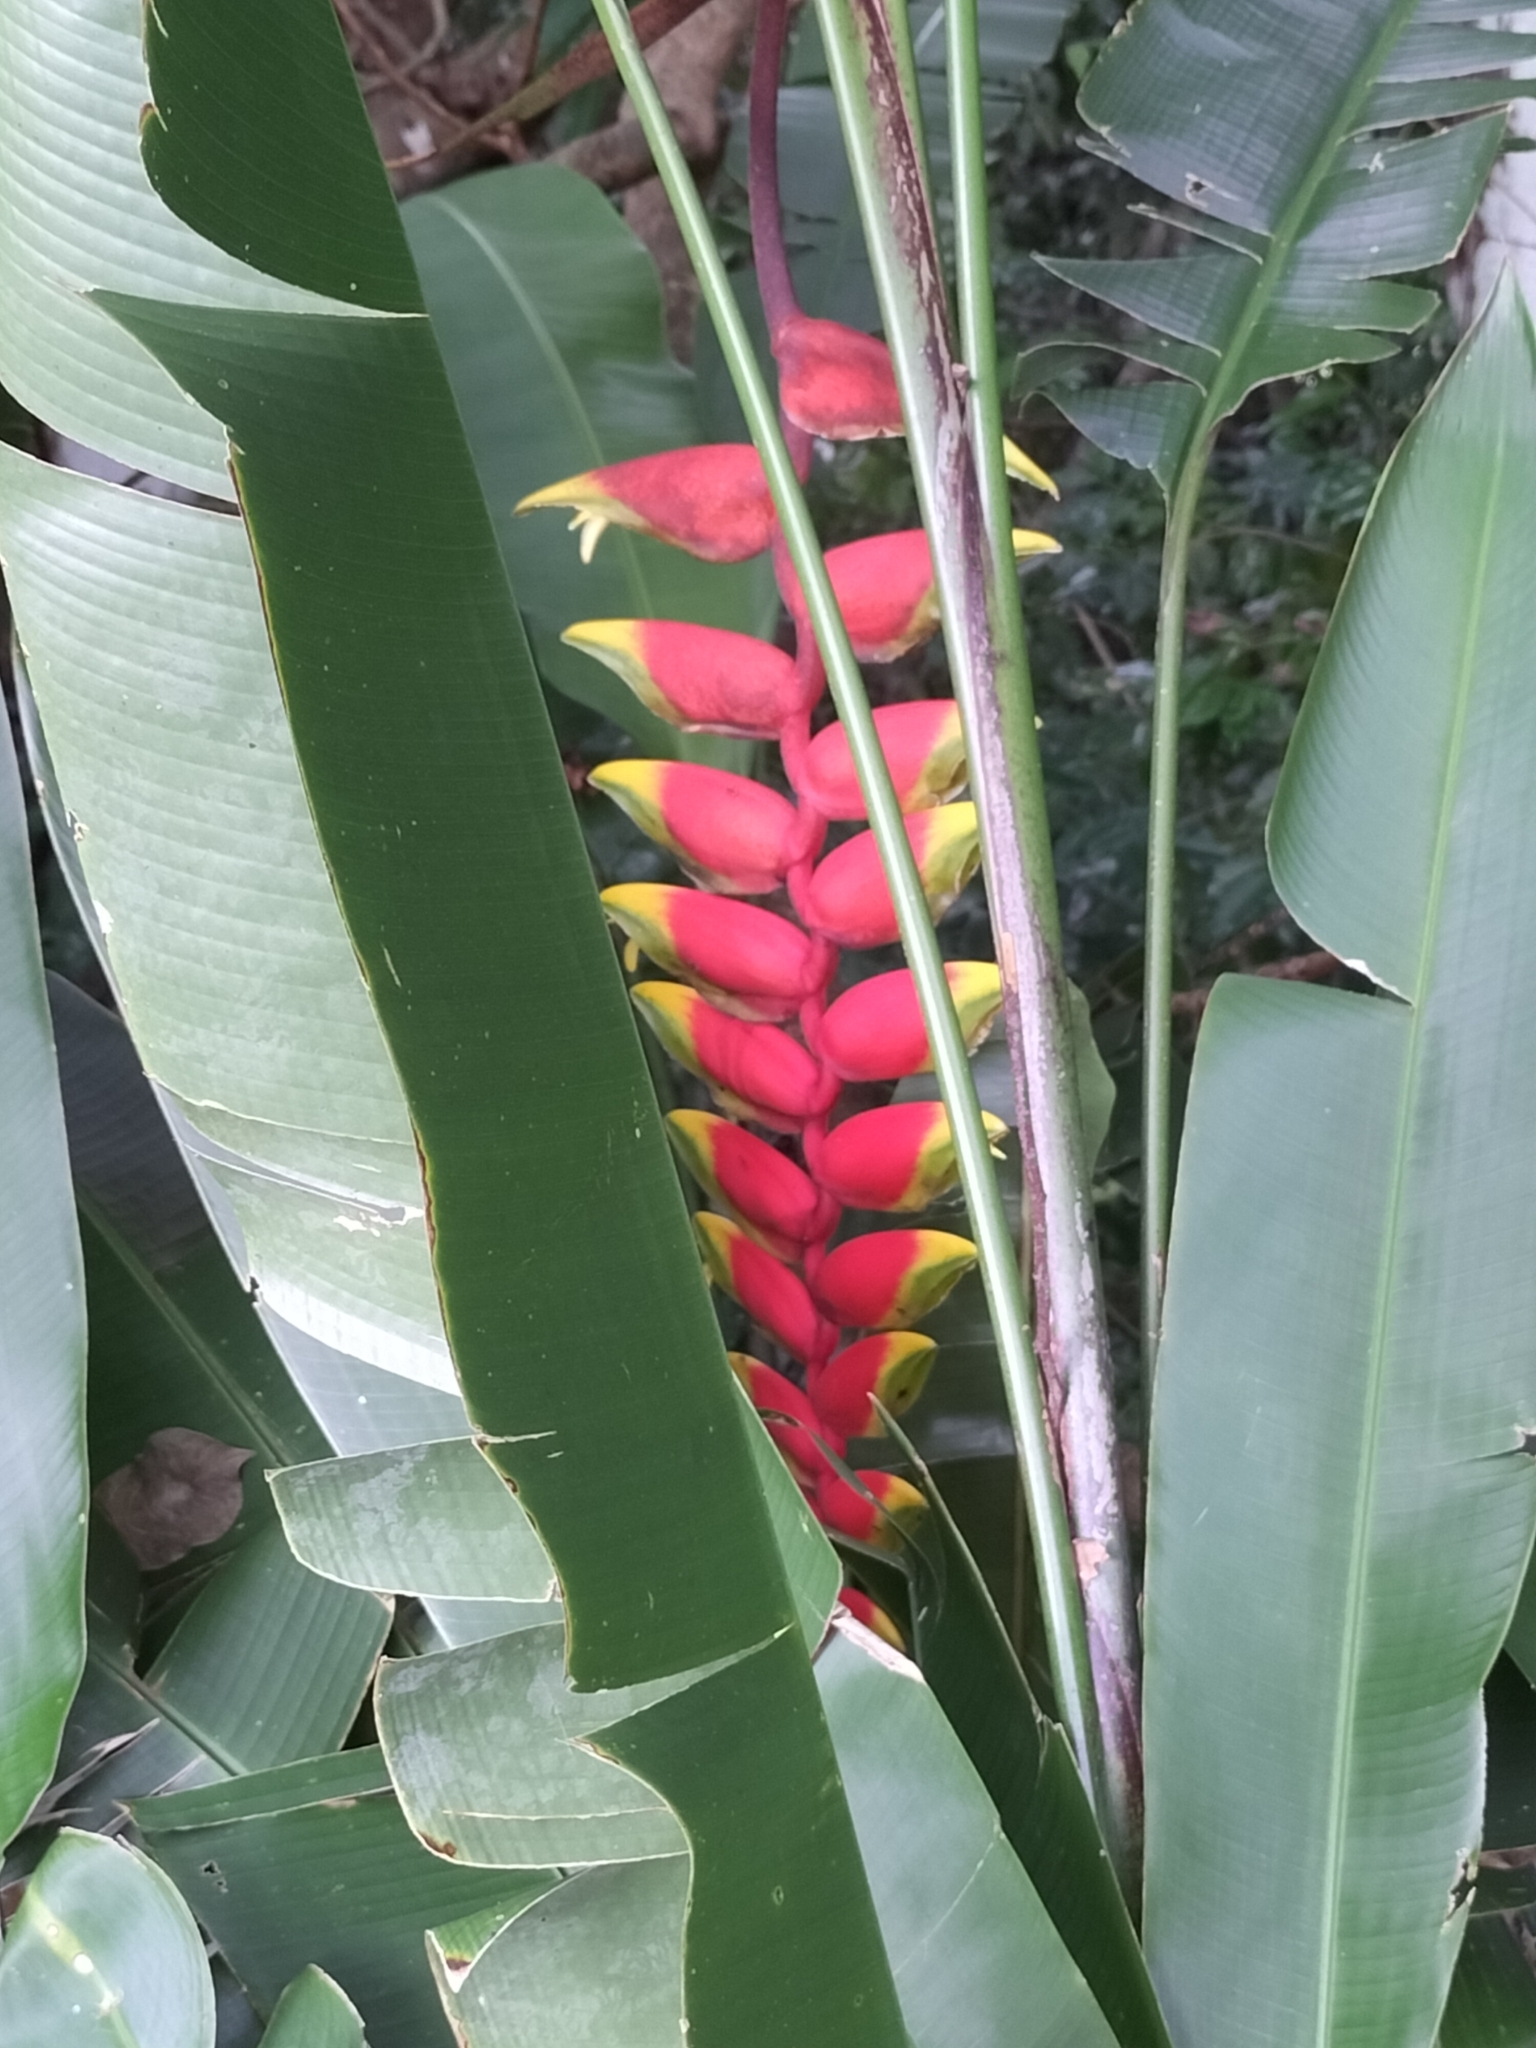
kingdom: Plantae
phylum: Tracheophyta
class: Liliopsida
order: Zingiberales
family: Heliconiaceae
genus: Heliconia
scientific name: Heliconia rostrata
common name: False bird of paradise
